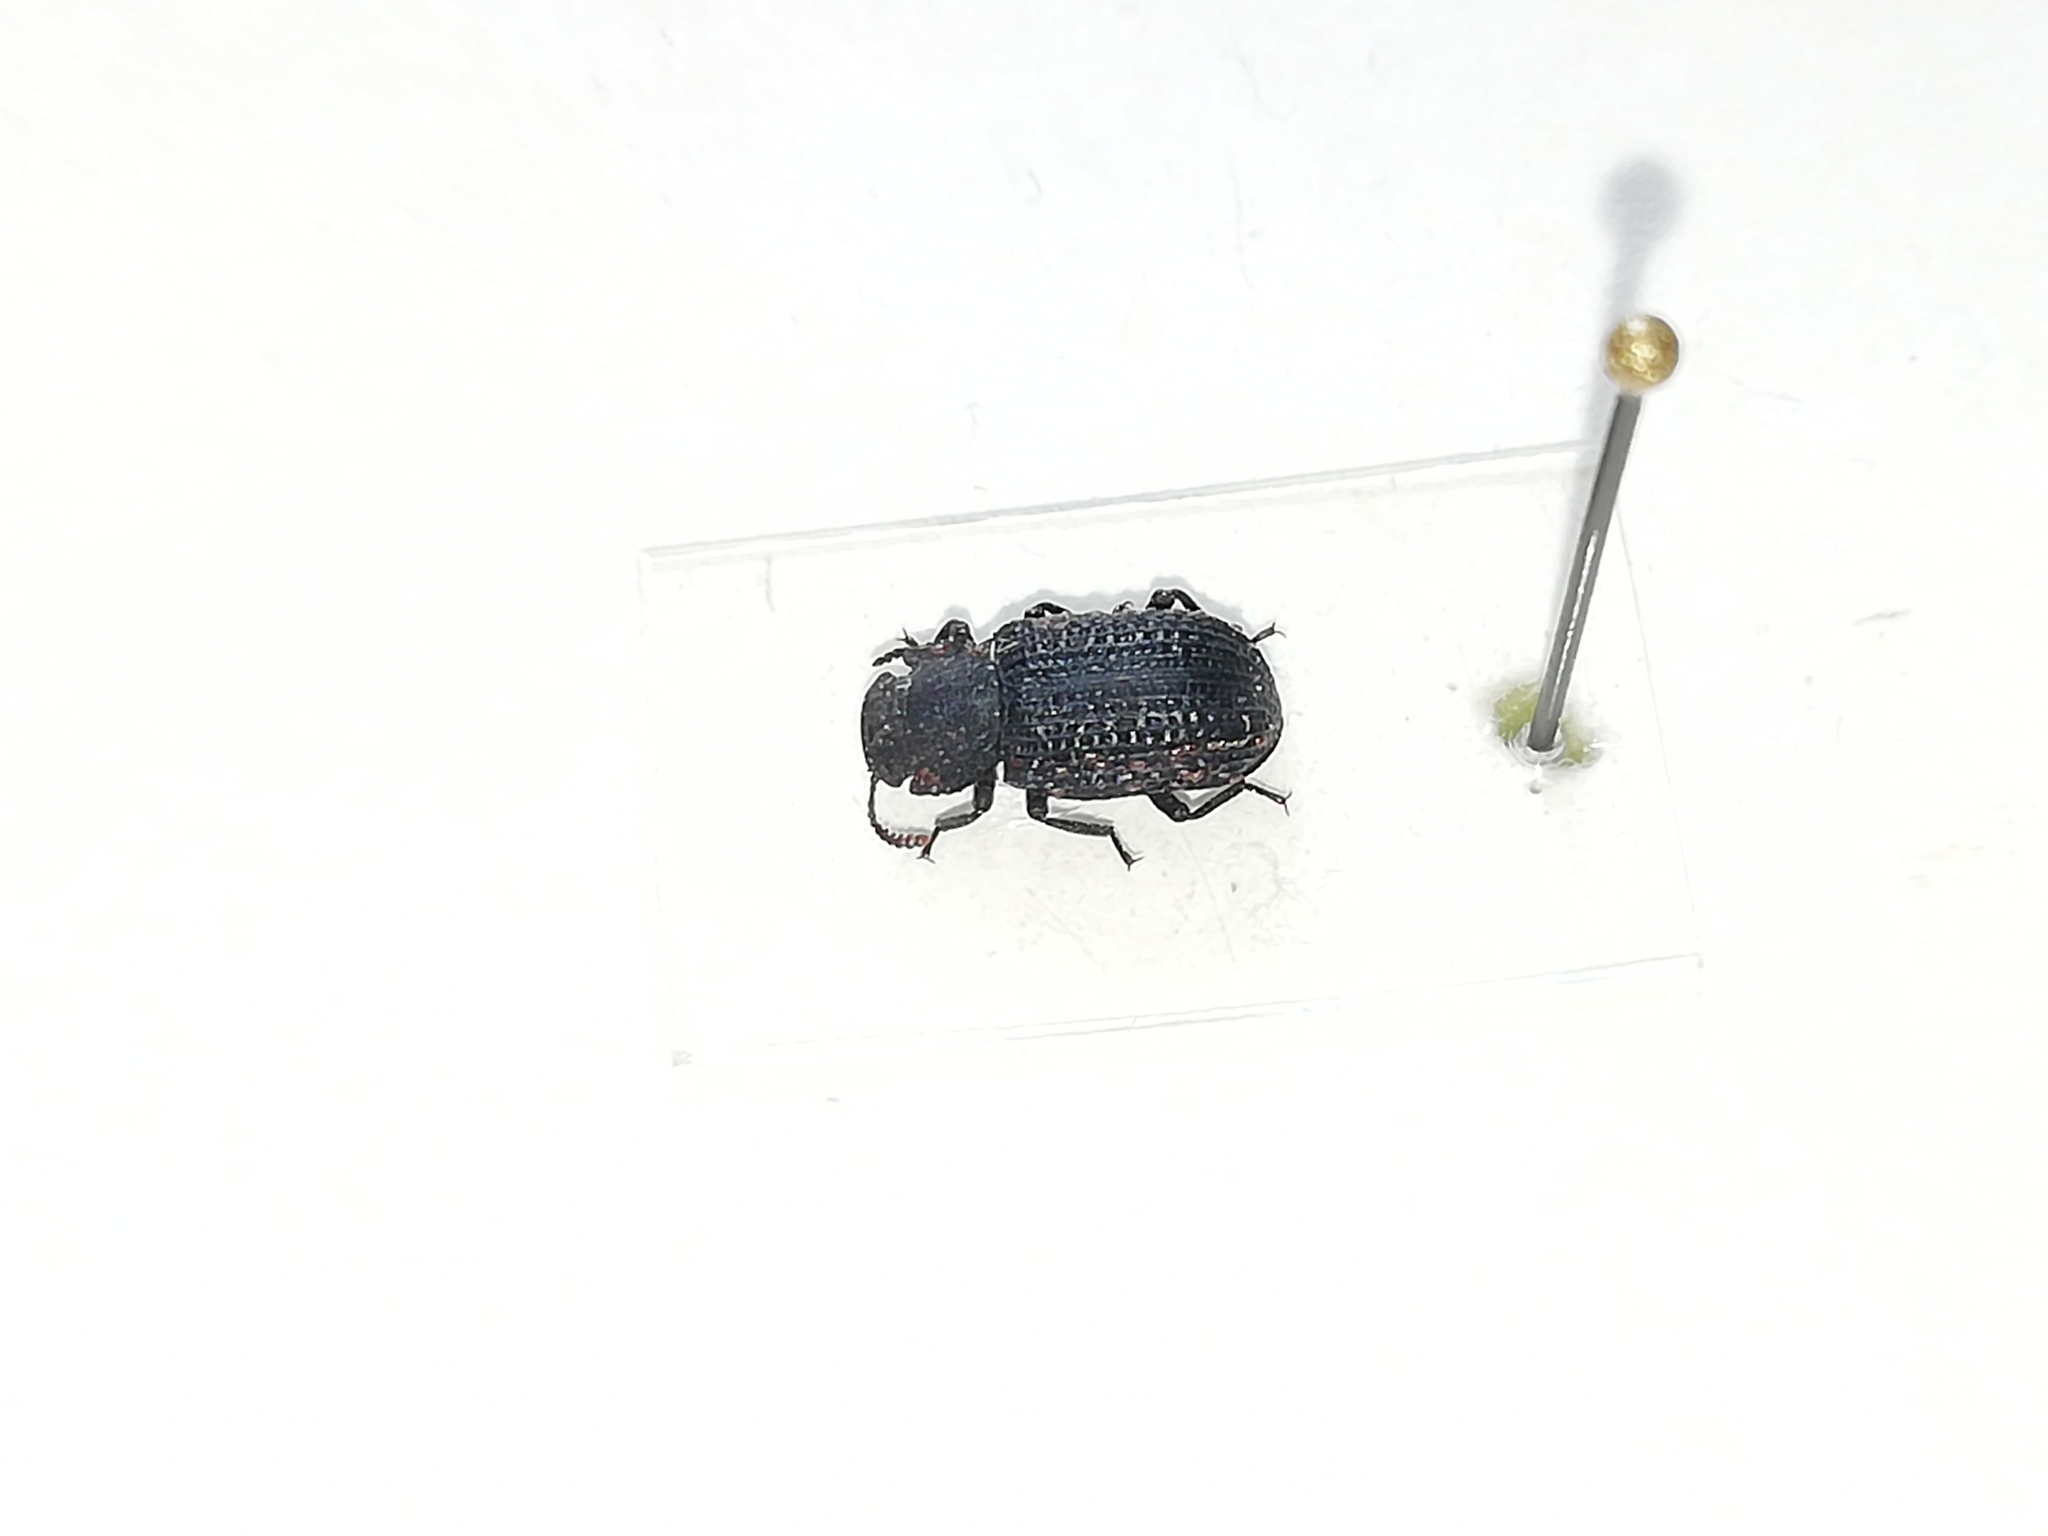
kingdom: Animalia
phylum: Arthropoda
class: Insecta
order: Coleoptera
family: Tenebrionidae
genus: Bolitophagus
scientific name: Bolitophagus reticulatus
